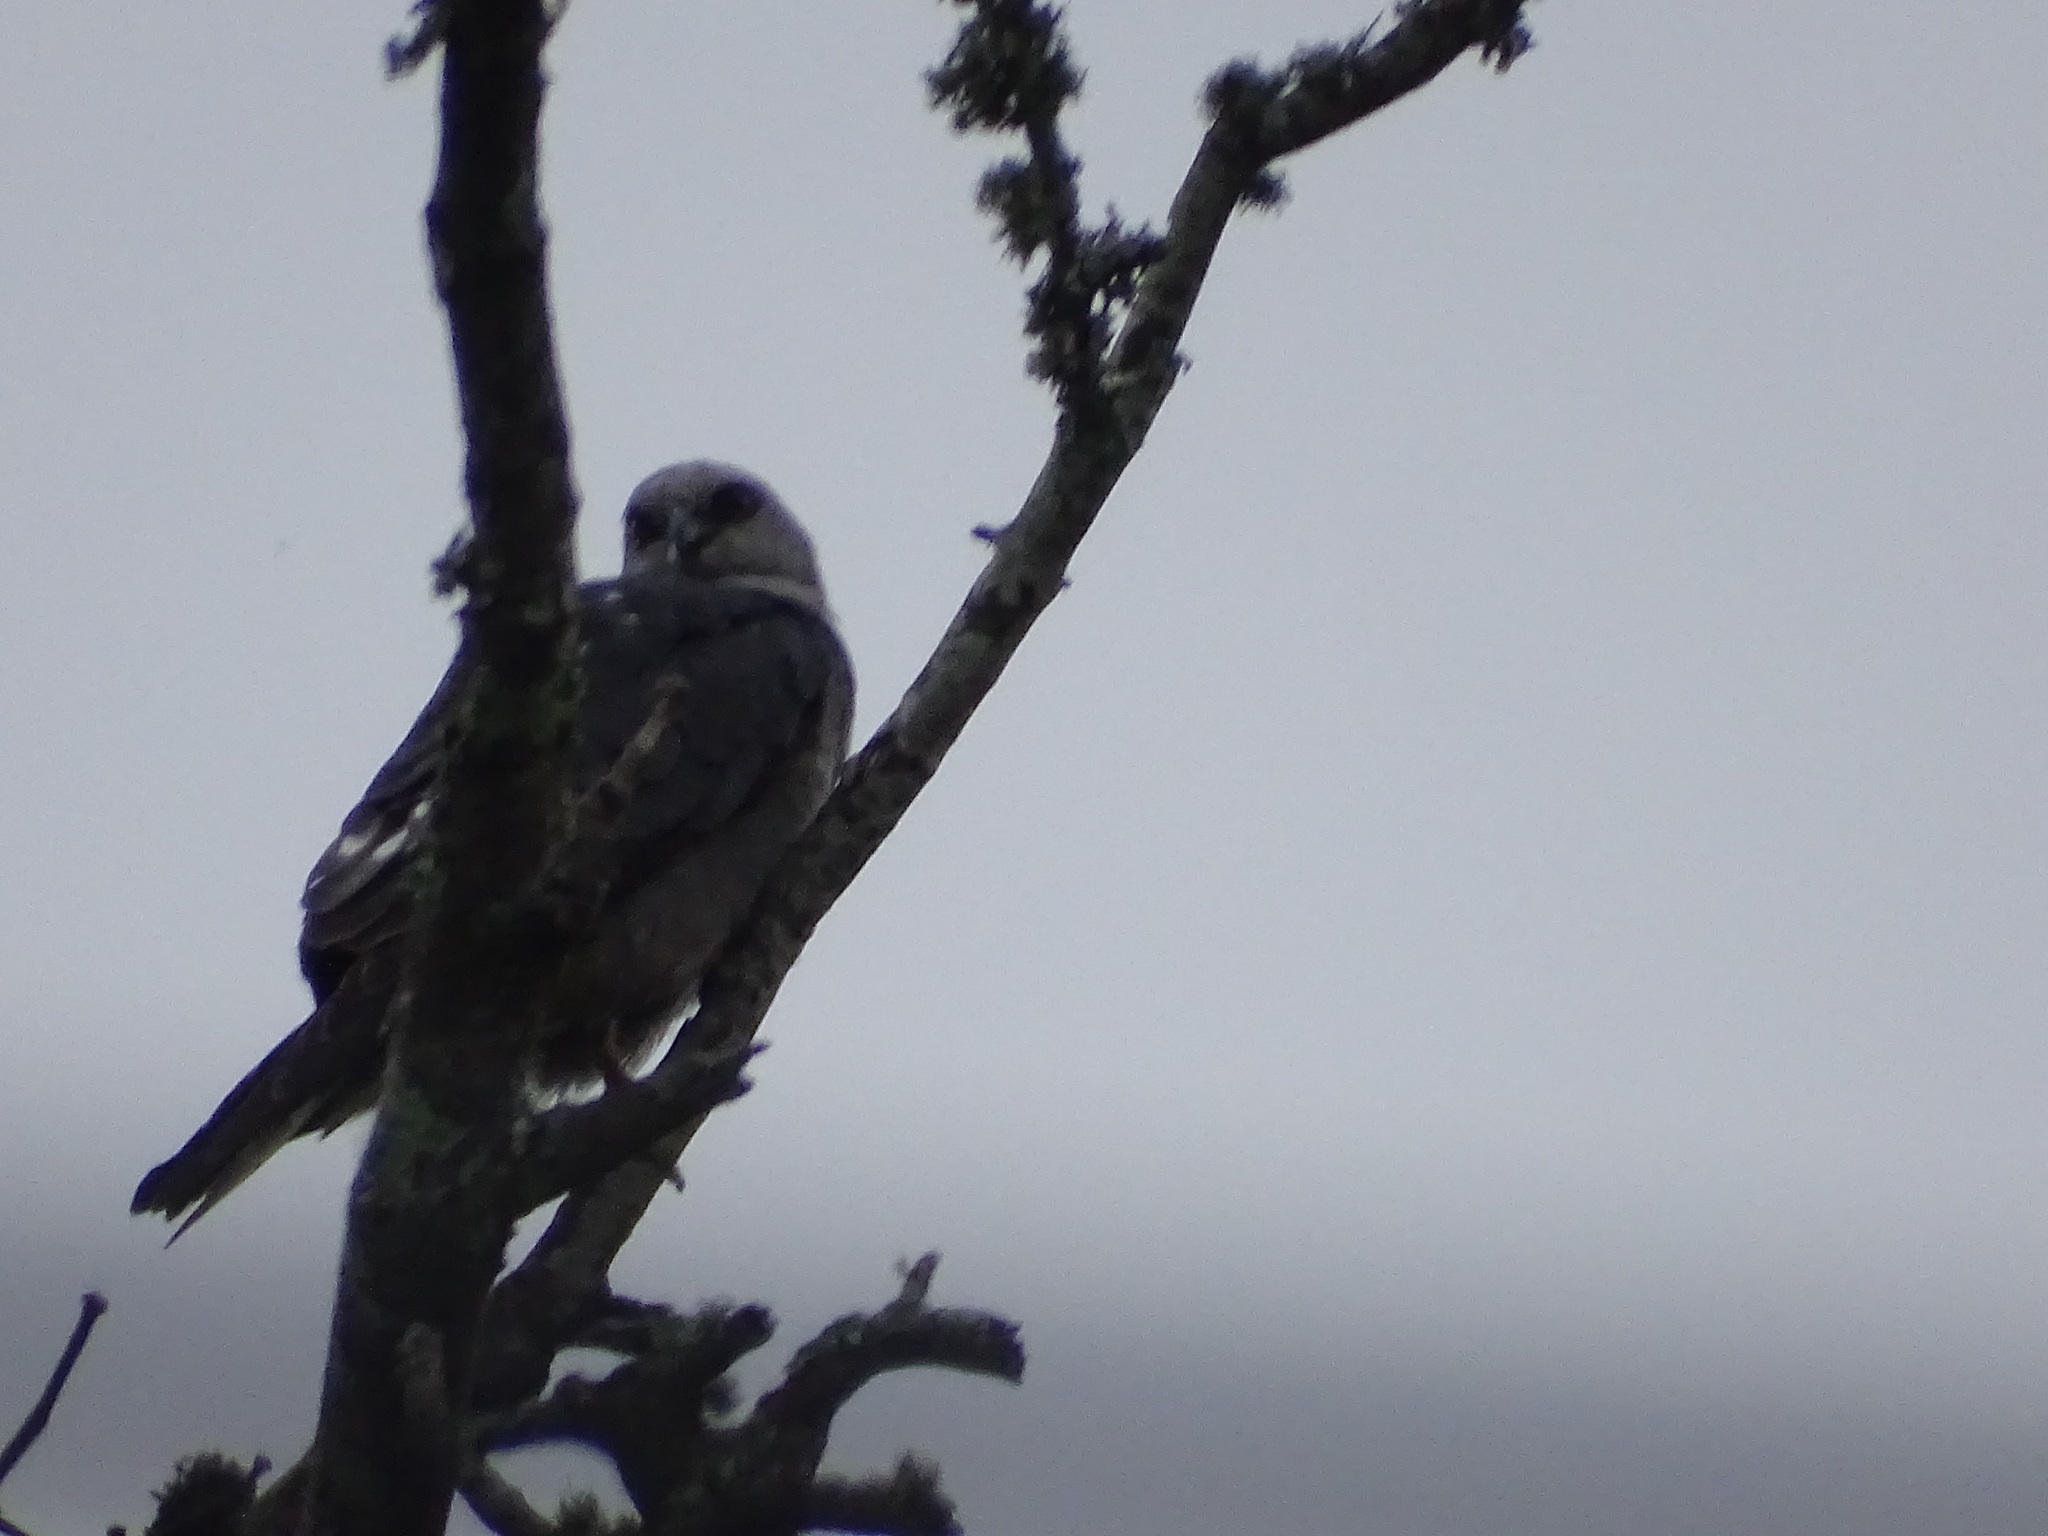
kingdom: Animalia
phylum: Chordata
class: Aves
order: Accipitriformes
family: Accipitridae
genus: Ictinia
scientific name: Ictinia mississippiensis
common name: Mississippi kite
